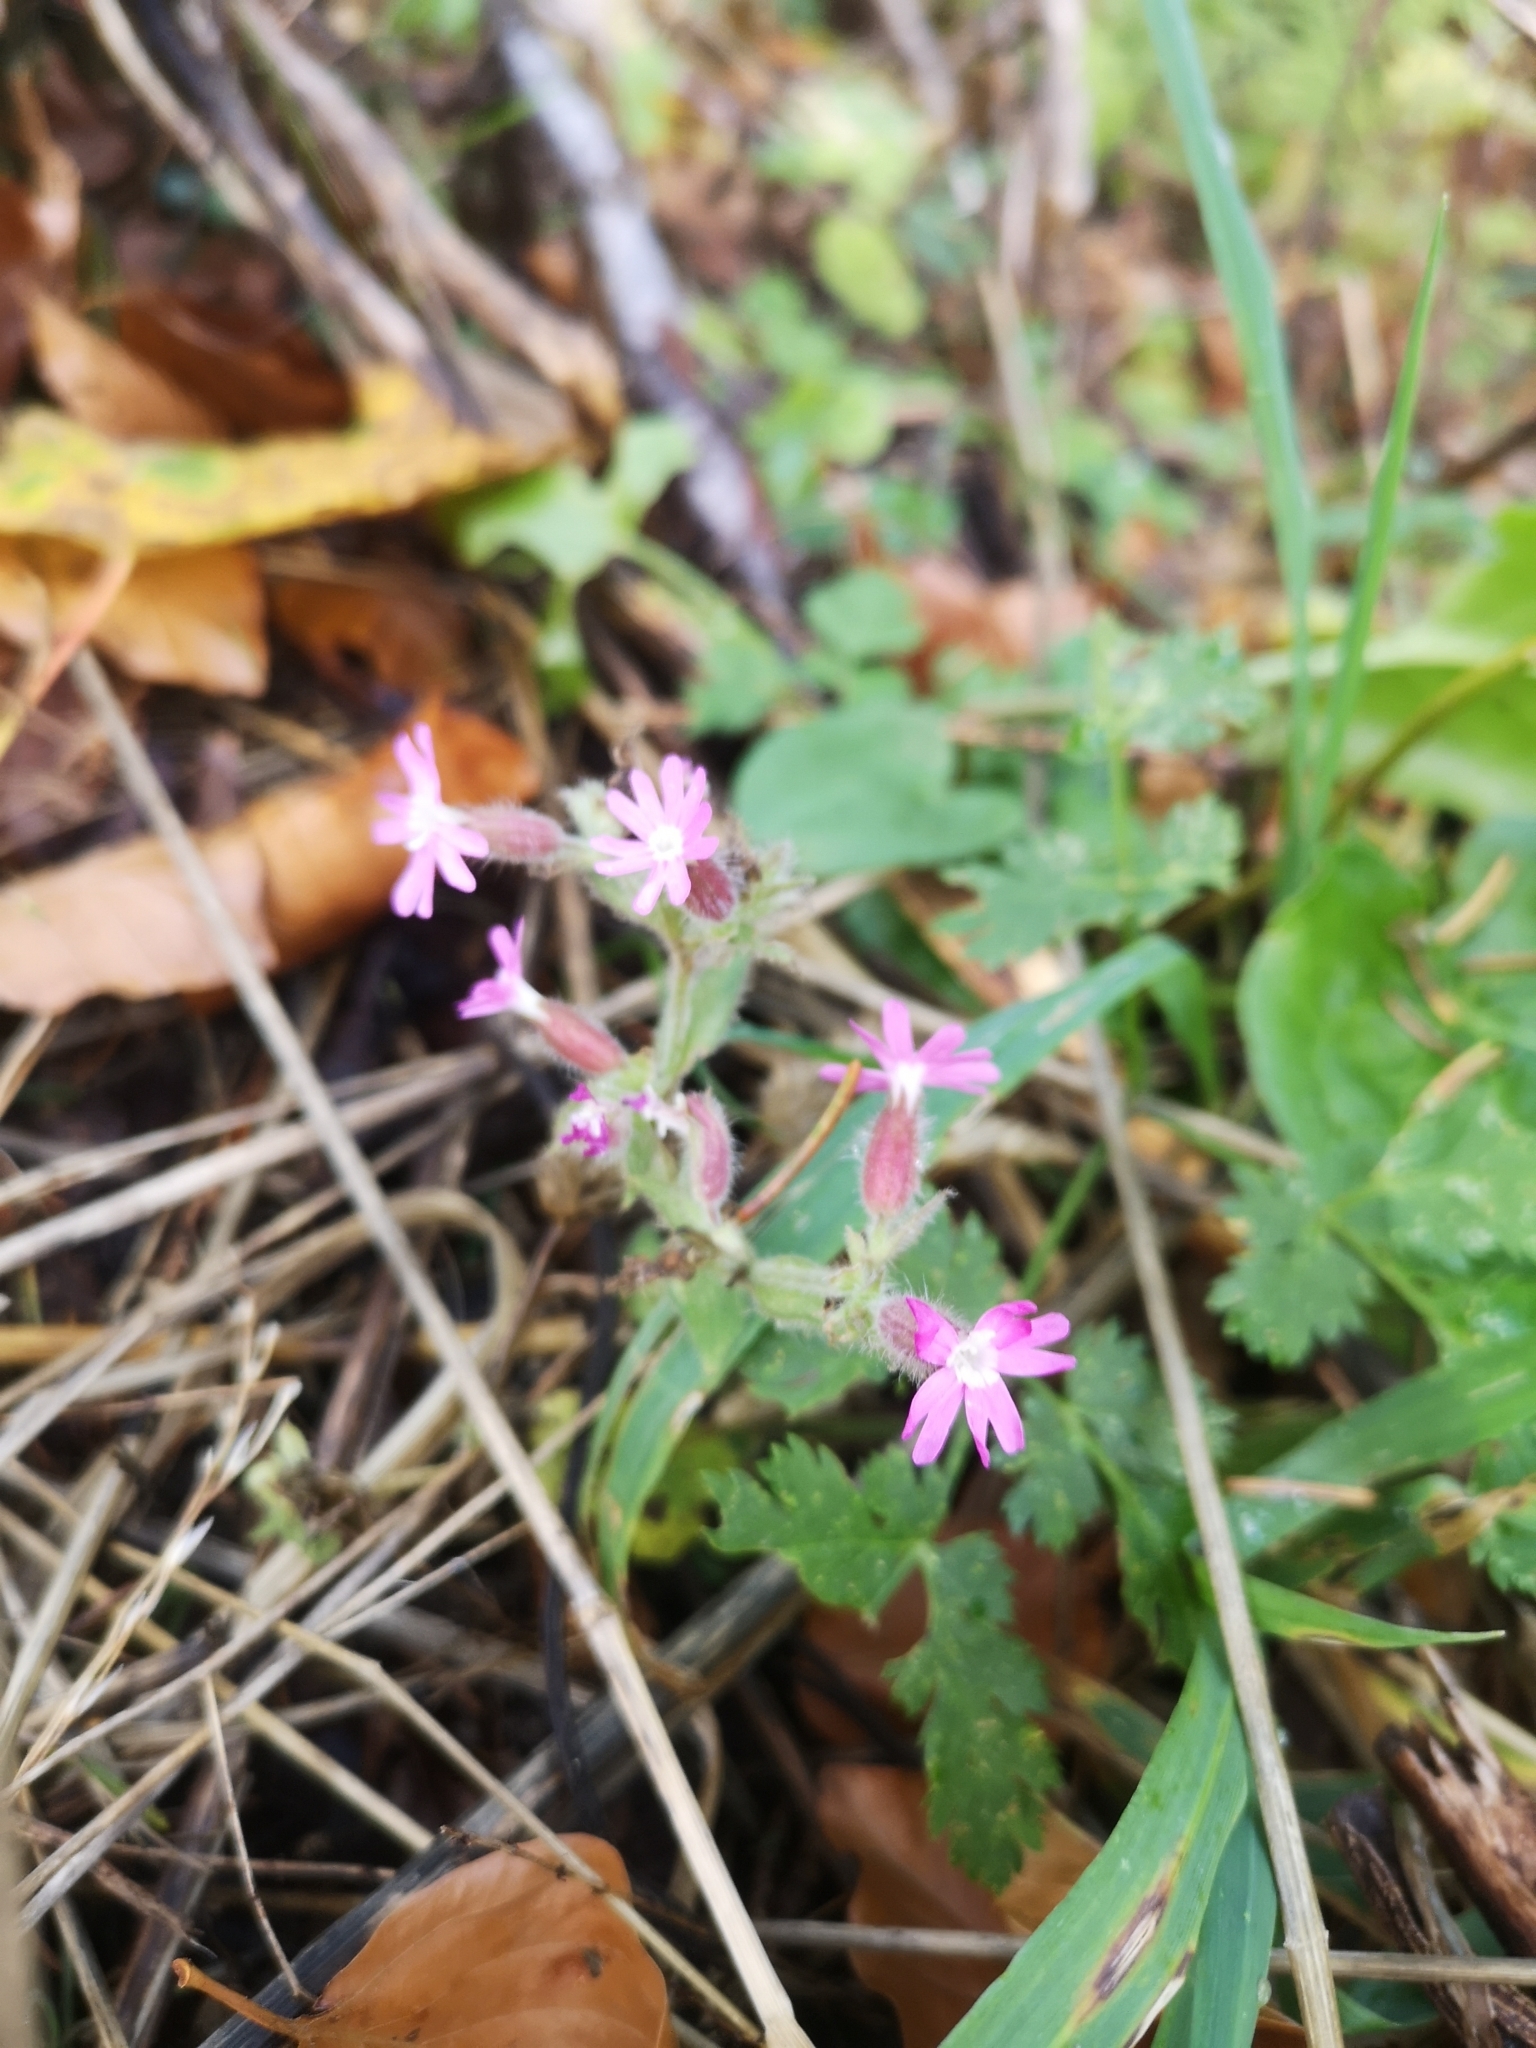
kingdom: Plantae
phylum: Tracheophyta
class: Magnoliopsida
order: Caryophyllales
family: Caryophyllaceae
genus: Silene
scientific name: Silene dioica
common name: Red campion
